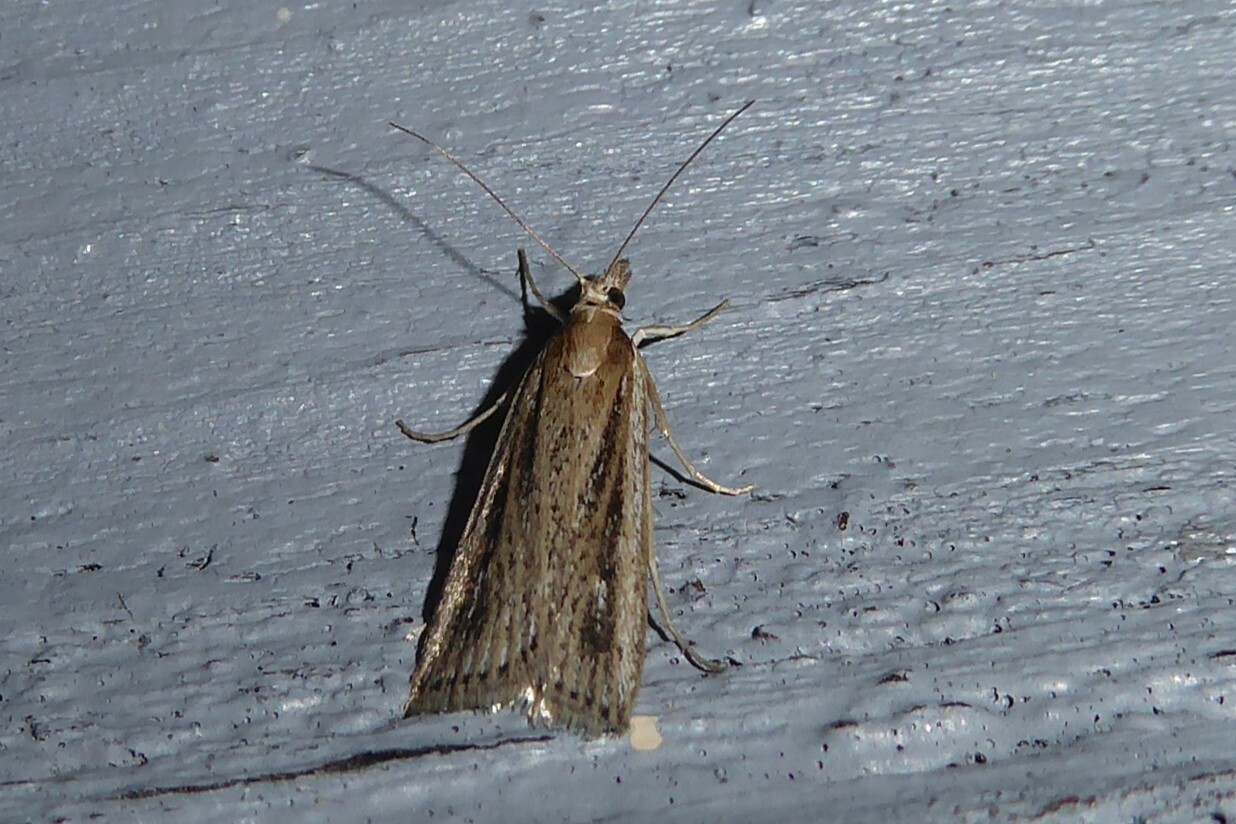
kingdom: Animalia
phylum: Arthropoda
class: Insecta
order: Lepidoptera
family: Crambidae
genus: Eudonia
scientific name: Eudonia sabulosella
